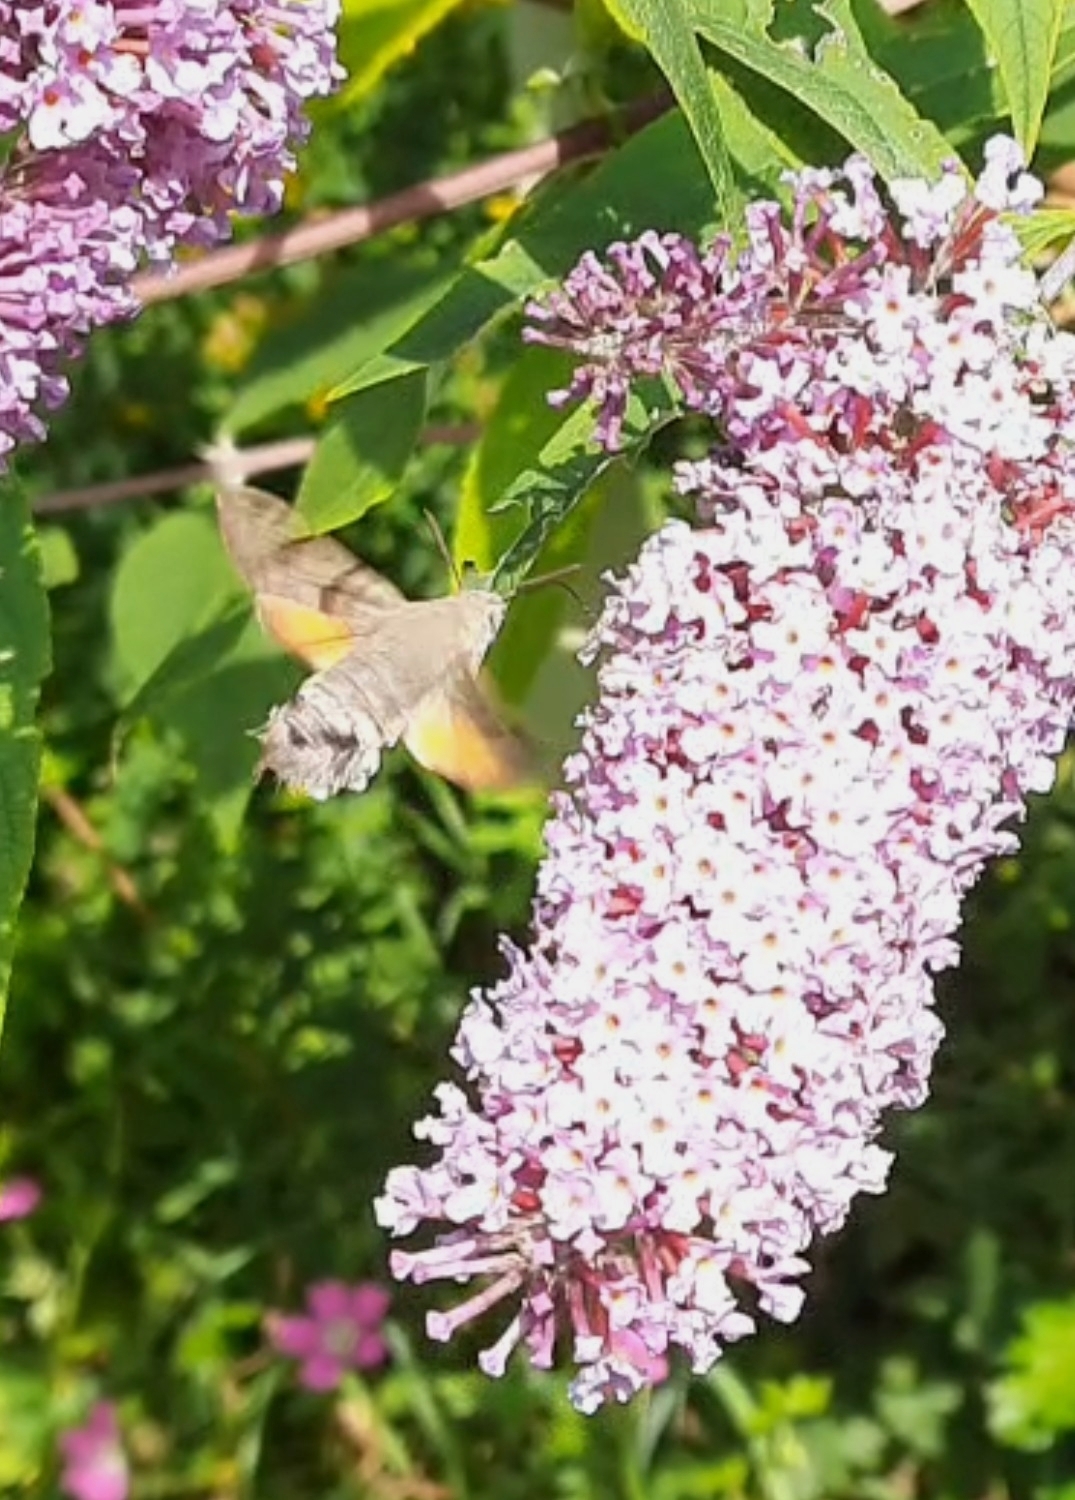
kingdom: Animalia
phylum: Arthropoda
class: Insecta
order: Lepidoptera
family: Sphingidae
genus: Macroglossum
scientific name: Macroglossum stellatarum
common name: Humming-bird hawk-moth
